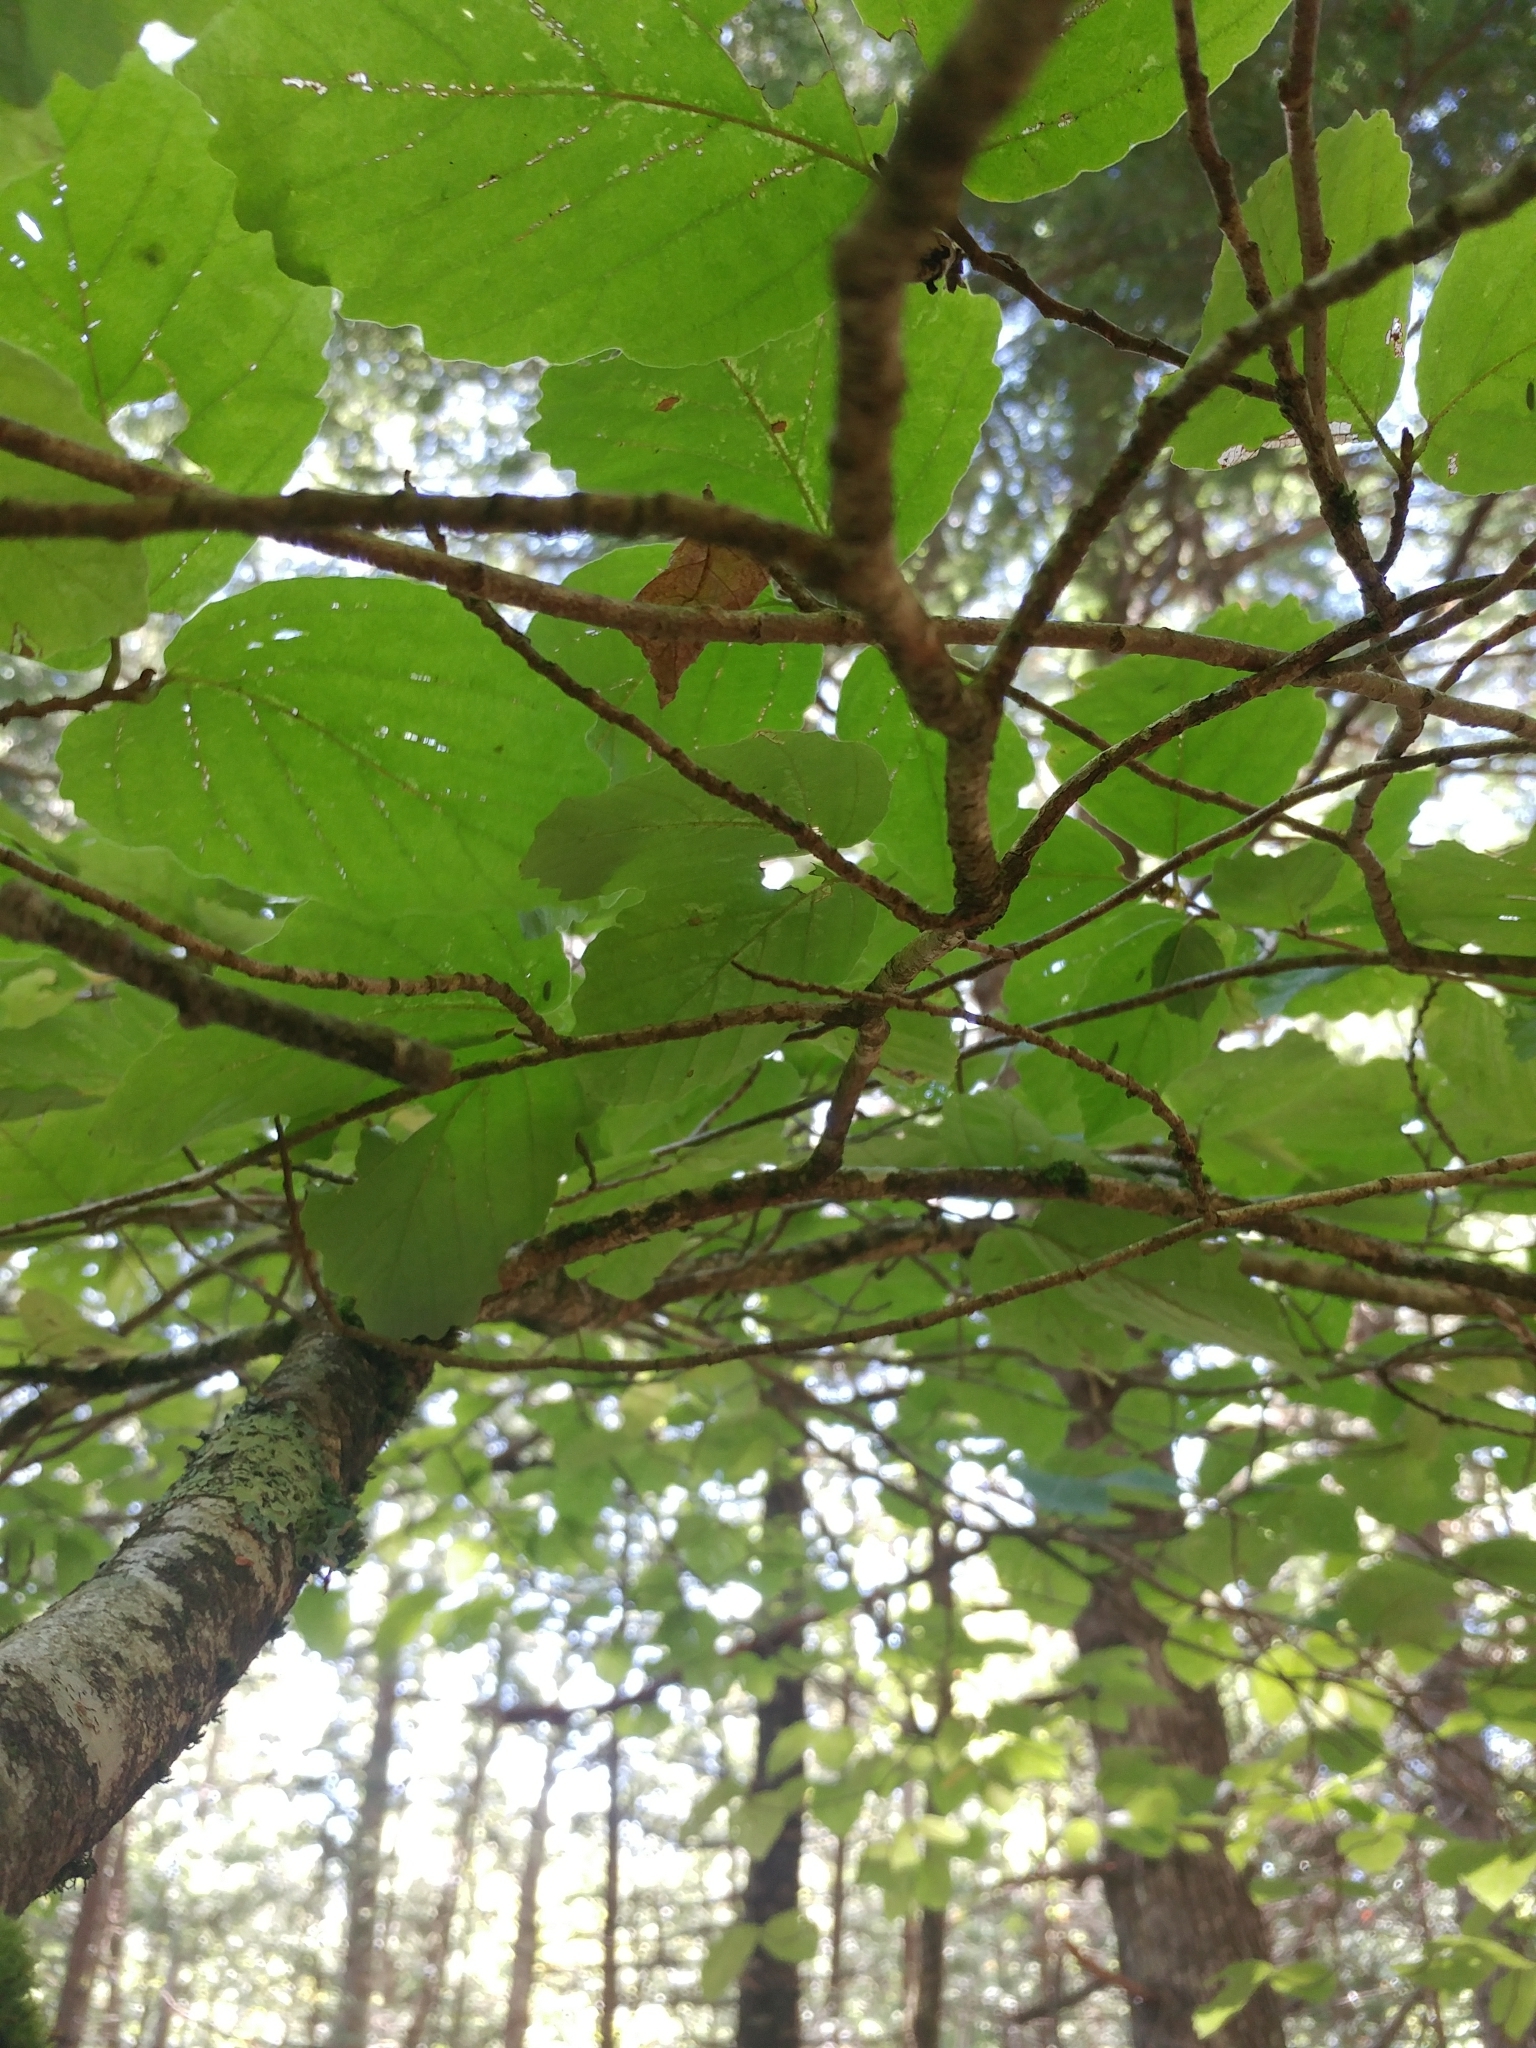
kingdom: Plantae
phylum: Tracheophyta
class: Magnoliopsida
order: Saxifragales
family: Hamamelidaceae
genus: Hamamelis
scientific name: Hamamelis virginiana
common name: Witch-hazel
